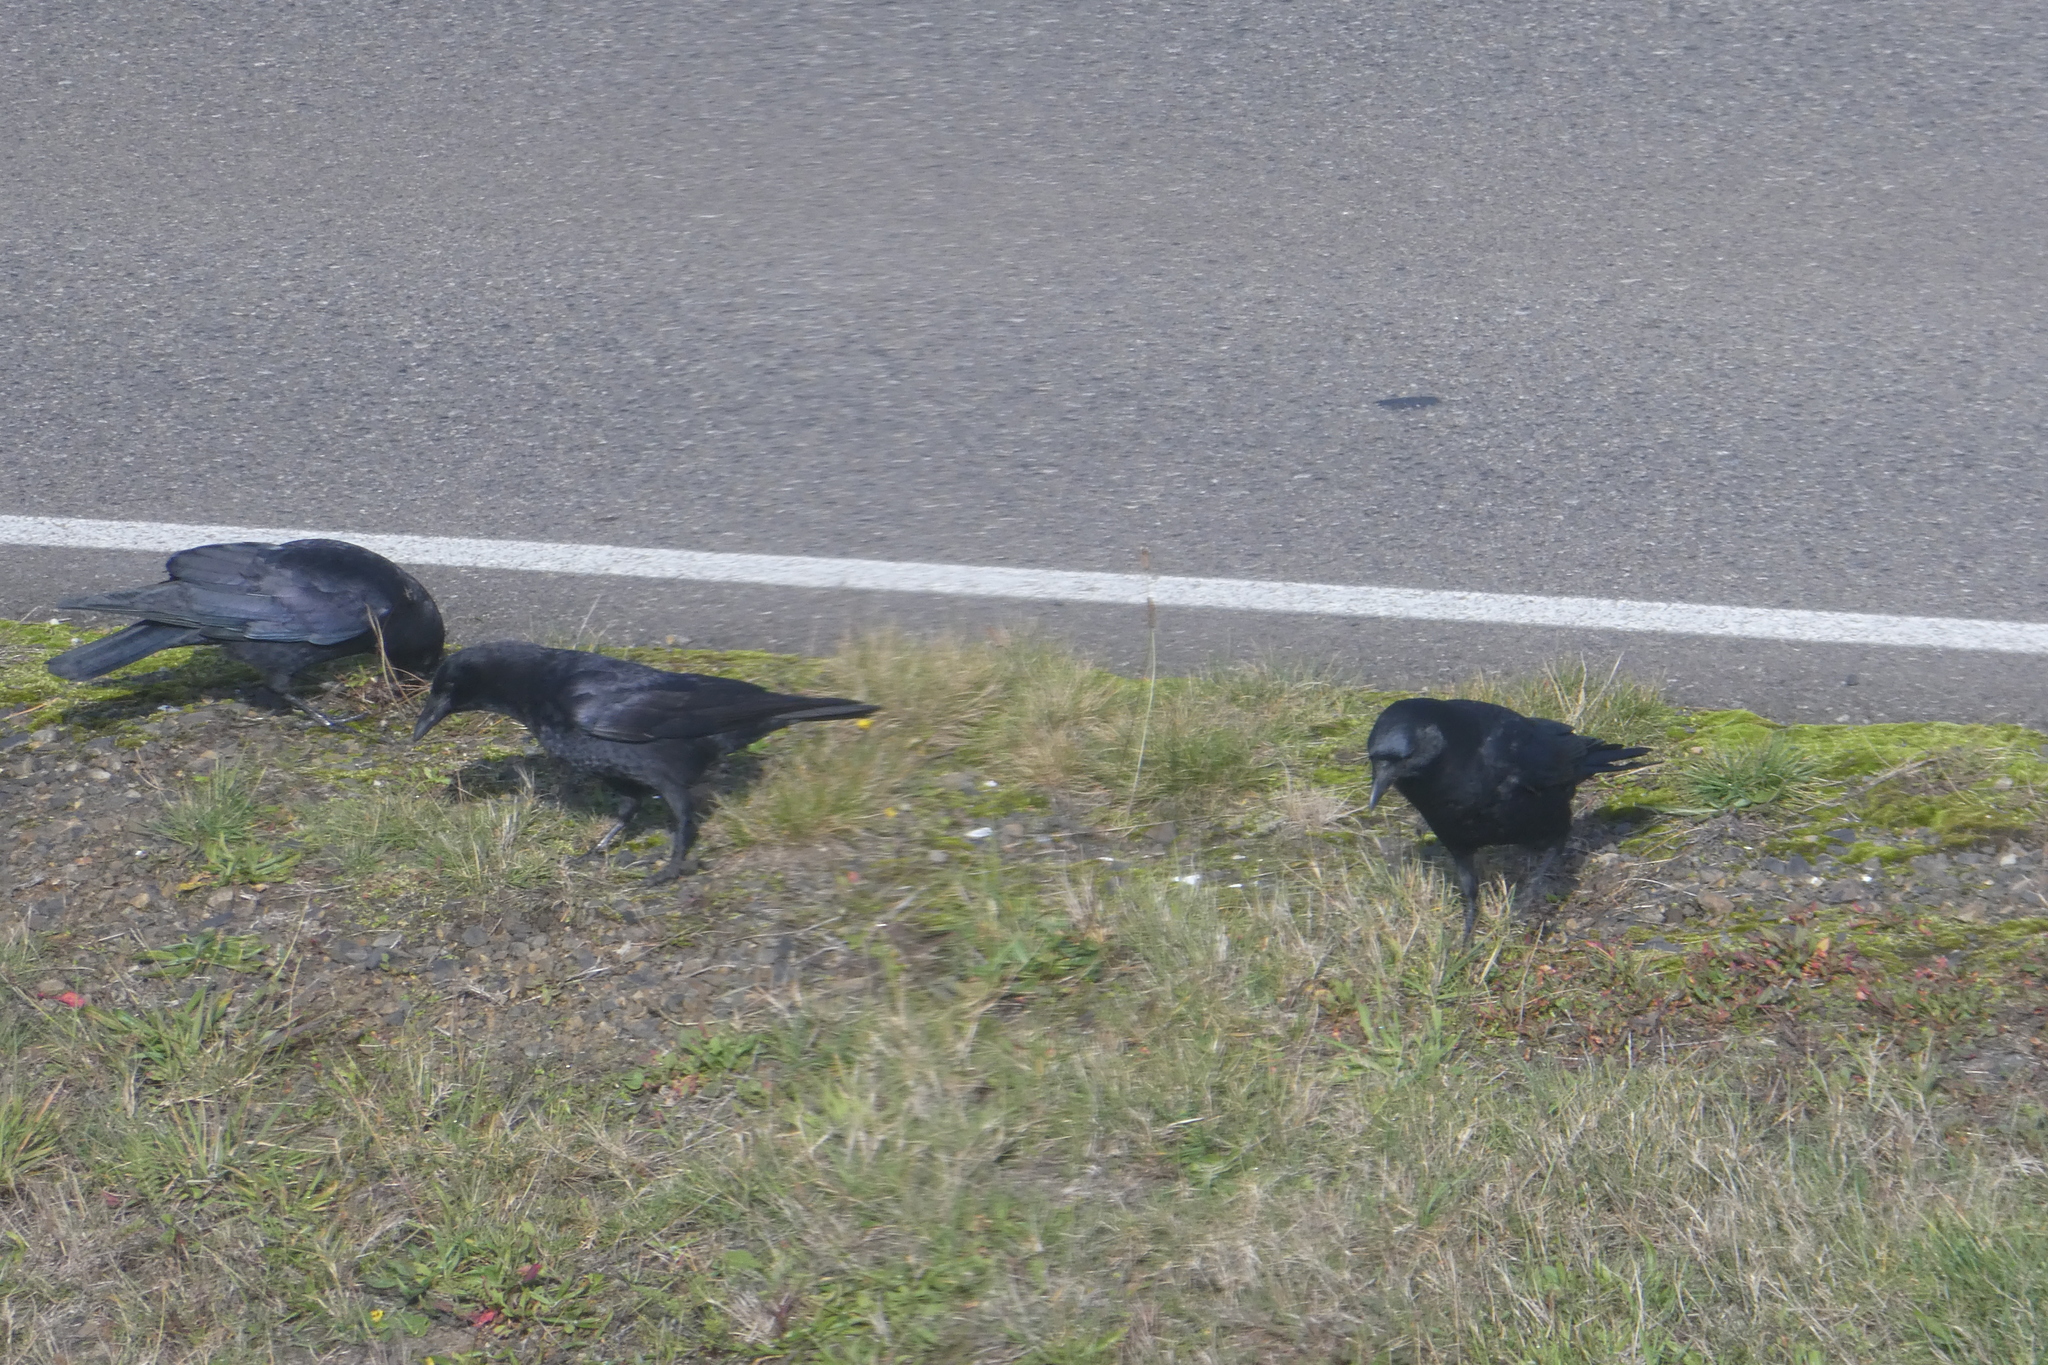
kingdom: Animalia
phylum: Chordata
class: Aves
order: Passeriformes
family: Corvidae
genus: Corvus
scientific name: Corvus brachyrhynchos
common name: American crow
